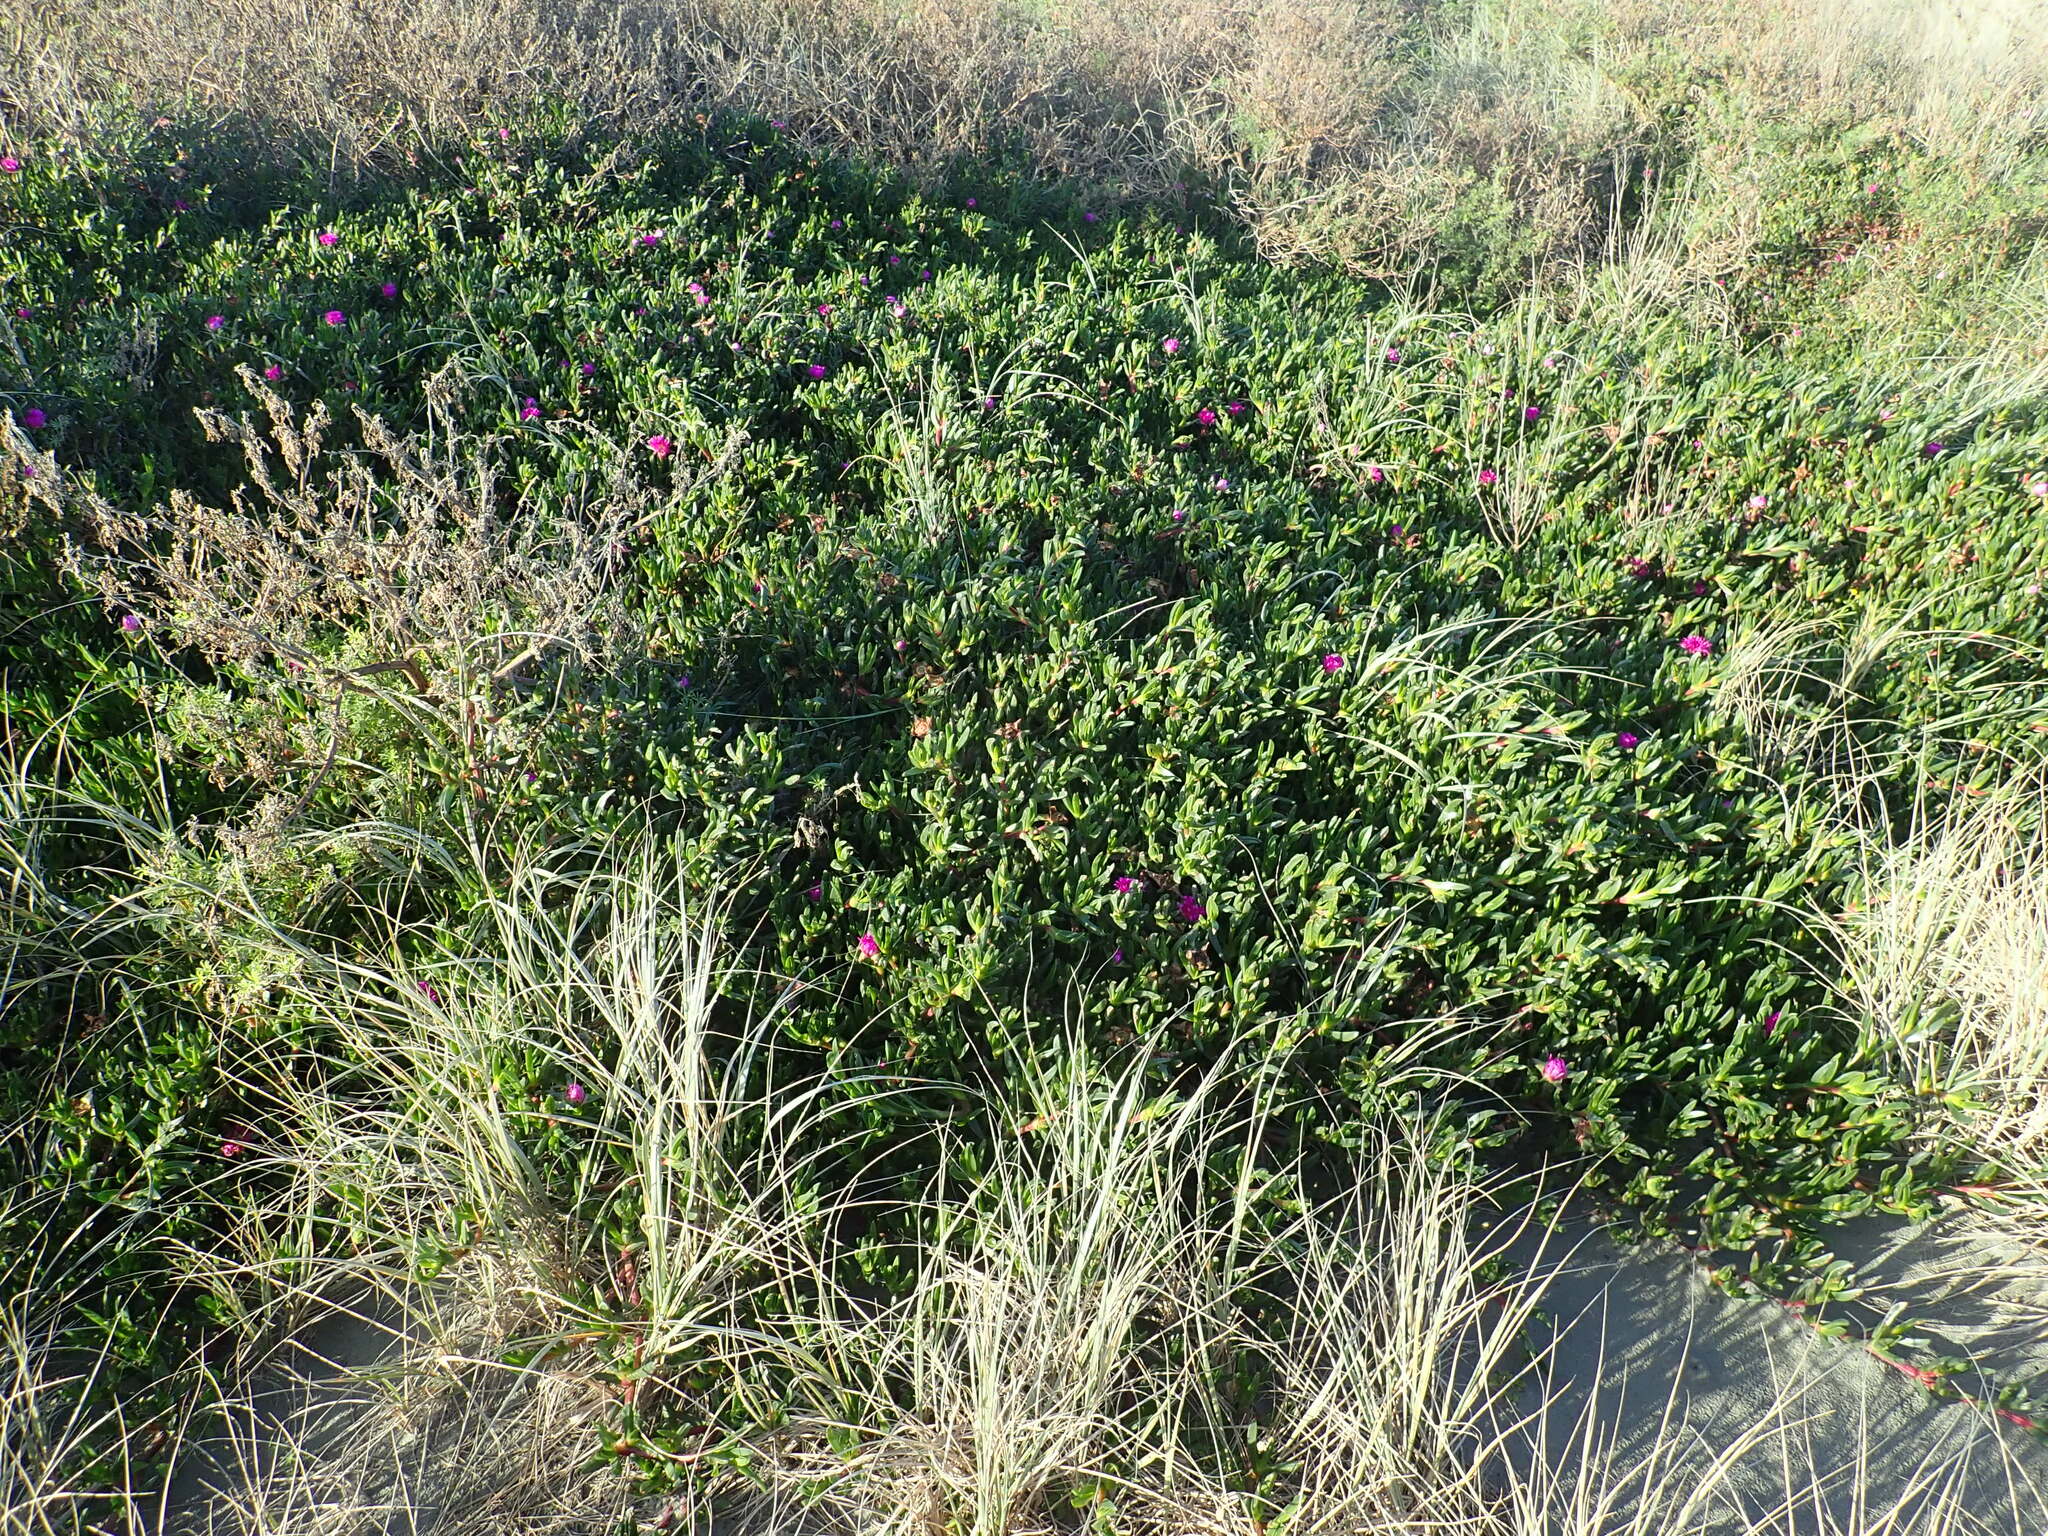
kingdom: Plantae
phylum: Tracheophyta
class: Magnoliopsida
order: Caryophyllales
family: Aizoaceae
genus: Carpobrotus
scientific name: Carpobrotus chilensis
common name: Sea fig
